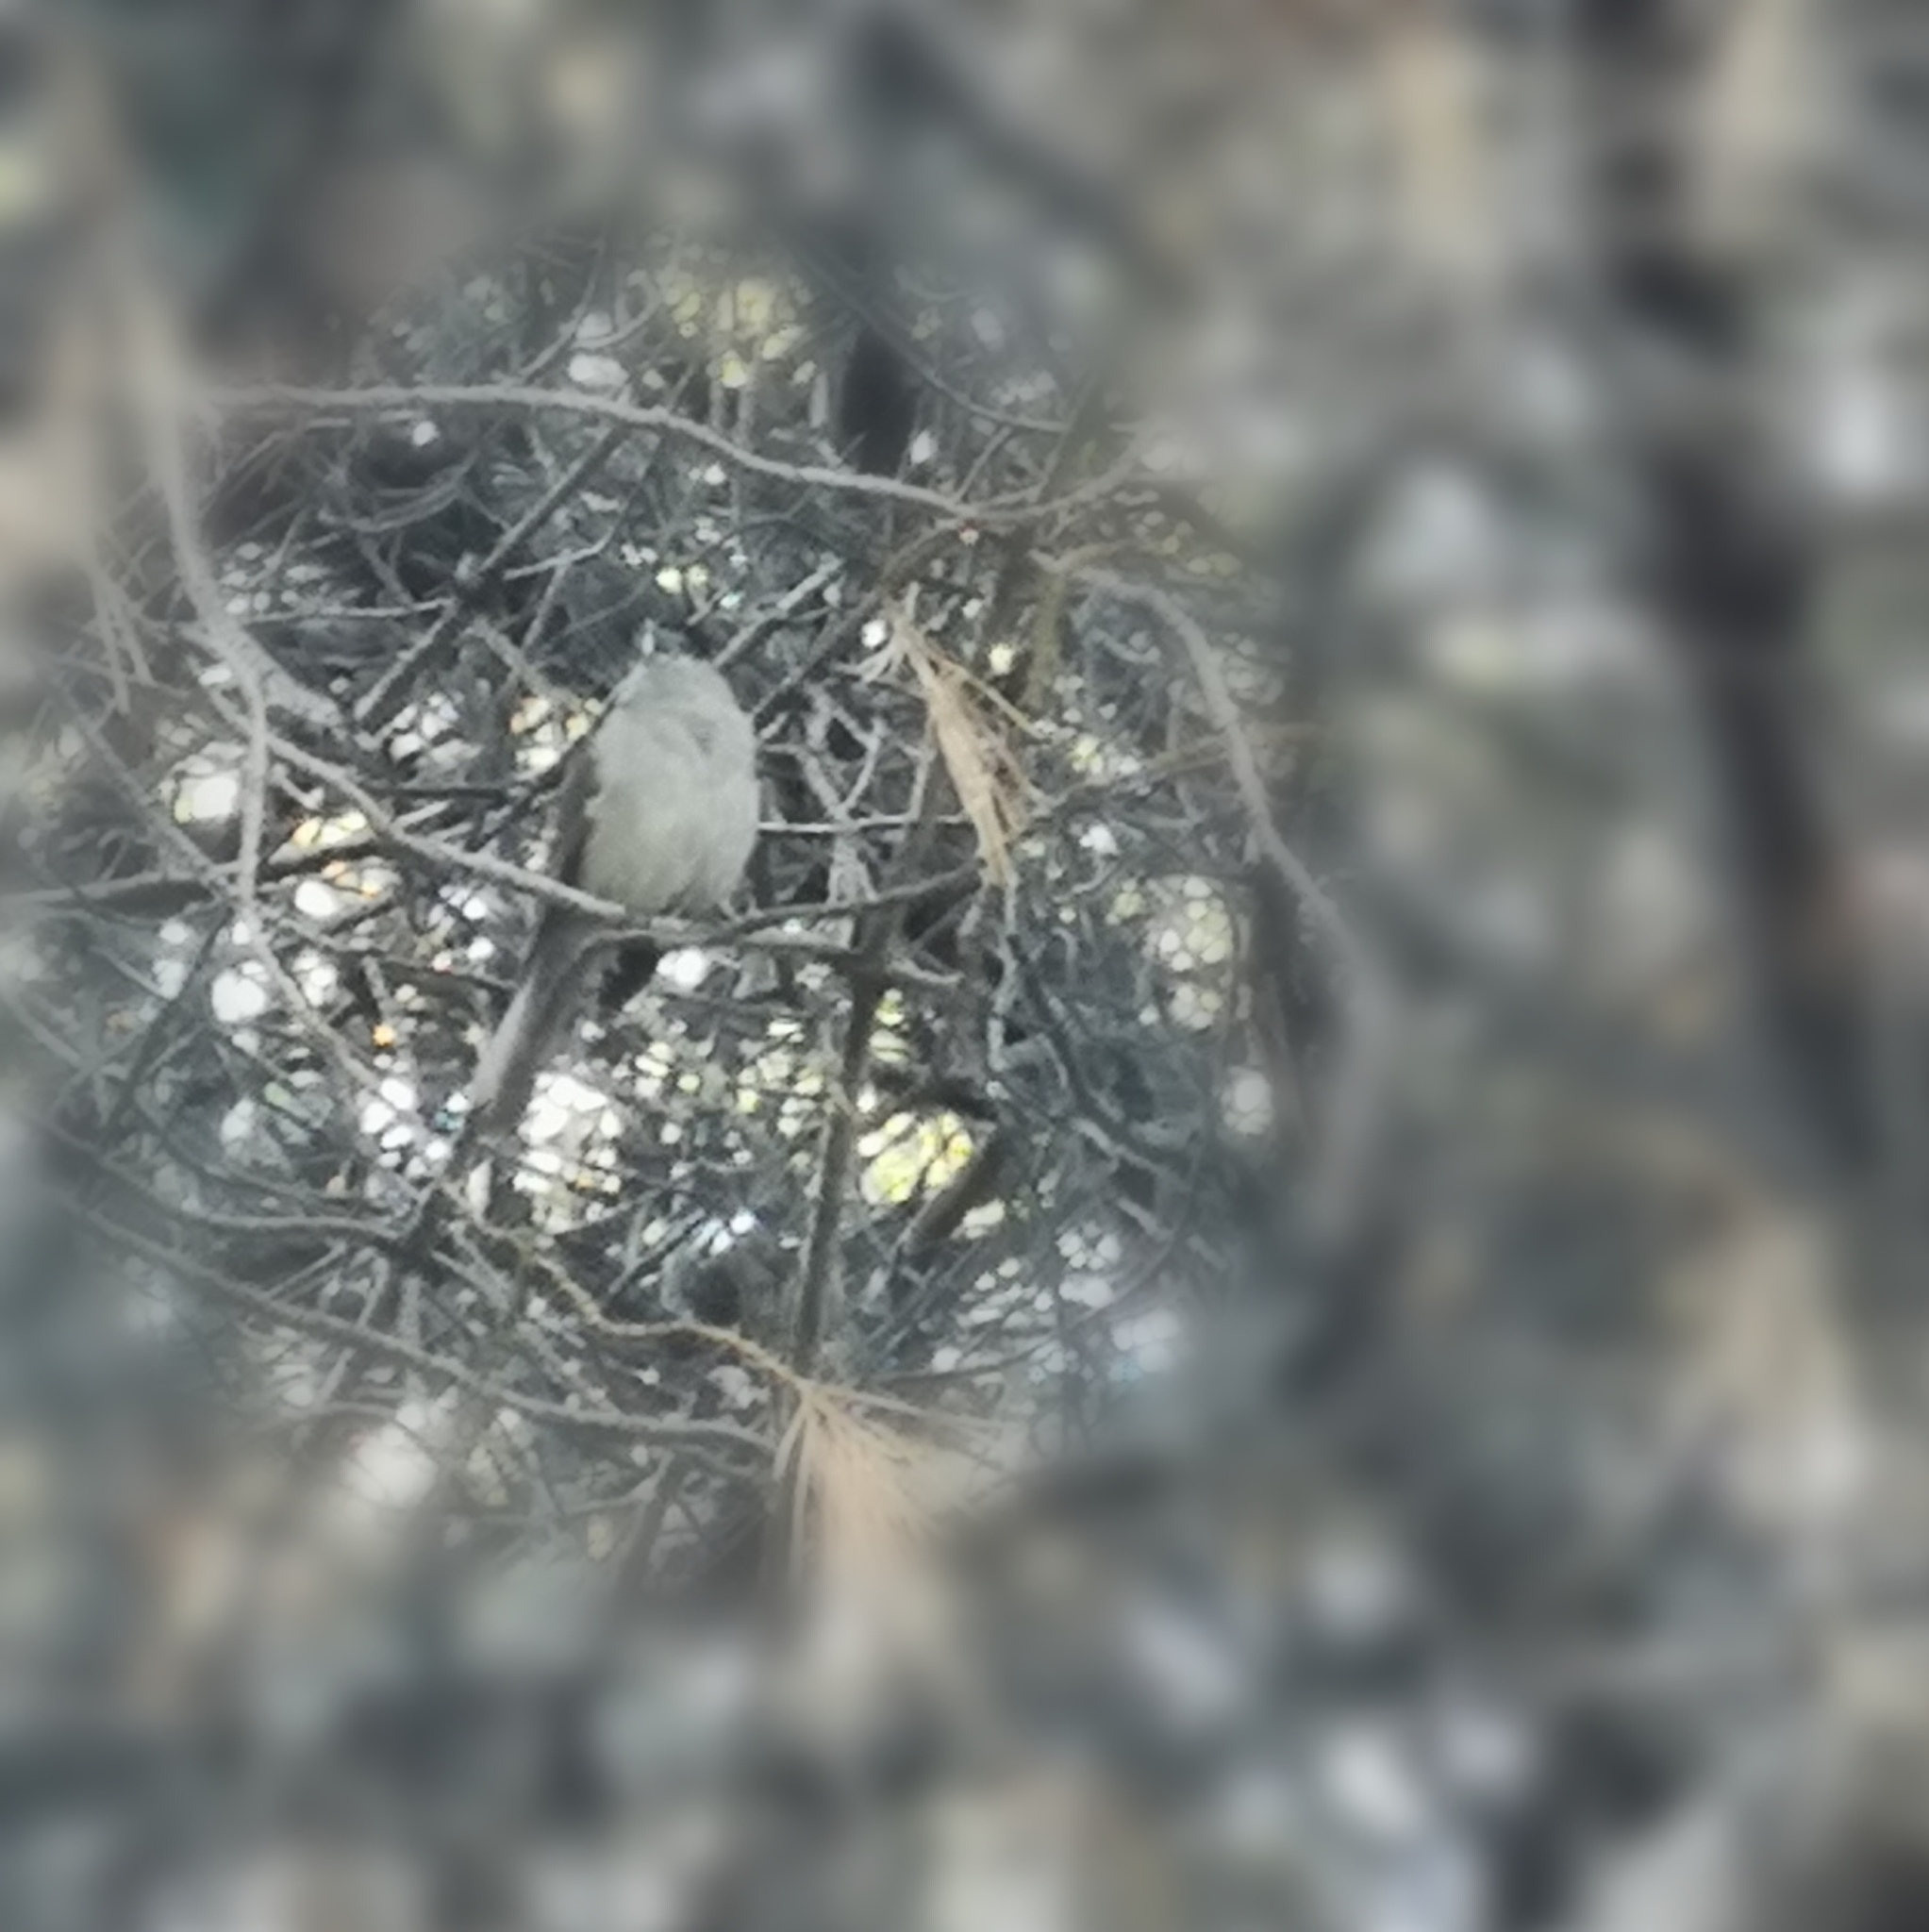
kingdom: Animalia
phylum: Chordata
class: Aves
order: Passeriformes
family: Sylviidae
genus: Sylvia
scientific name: Sylvia atricapilla
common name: Eurasian blackcap
